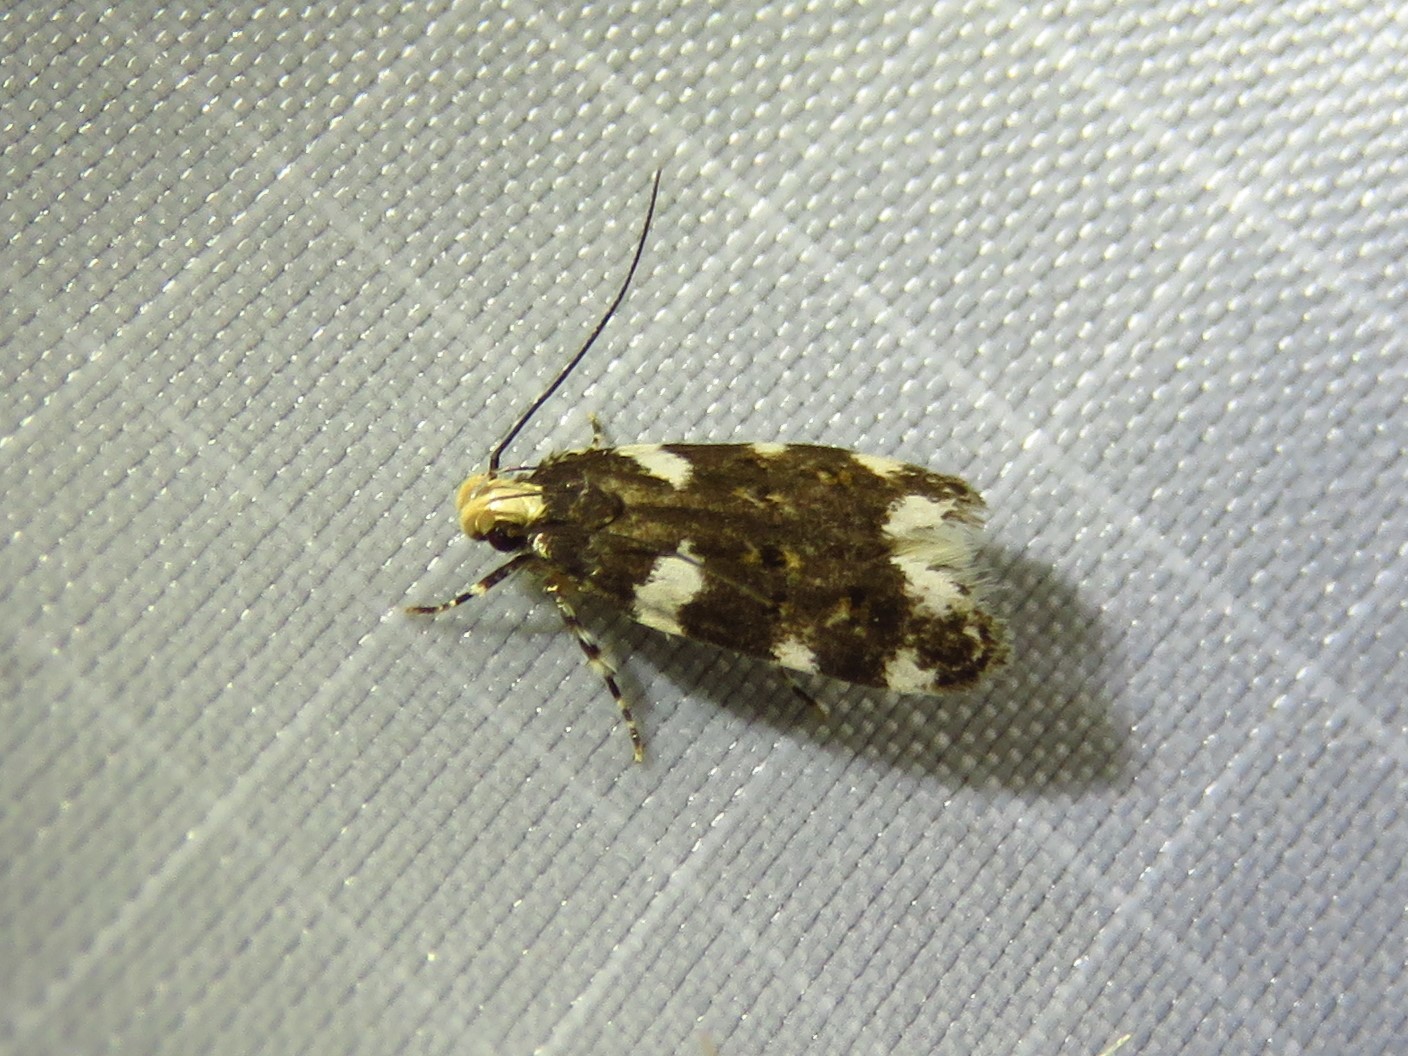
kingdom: Animalia
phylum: Arthropoda
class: Insecta
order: Lepidoptera
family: Gelechiidae
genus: Fascista
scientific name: Fascista cercerisella
